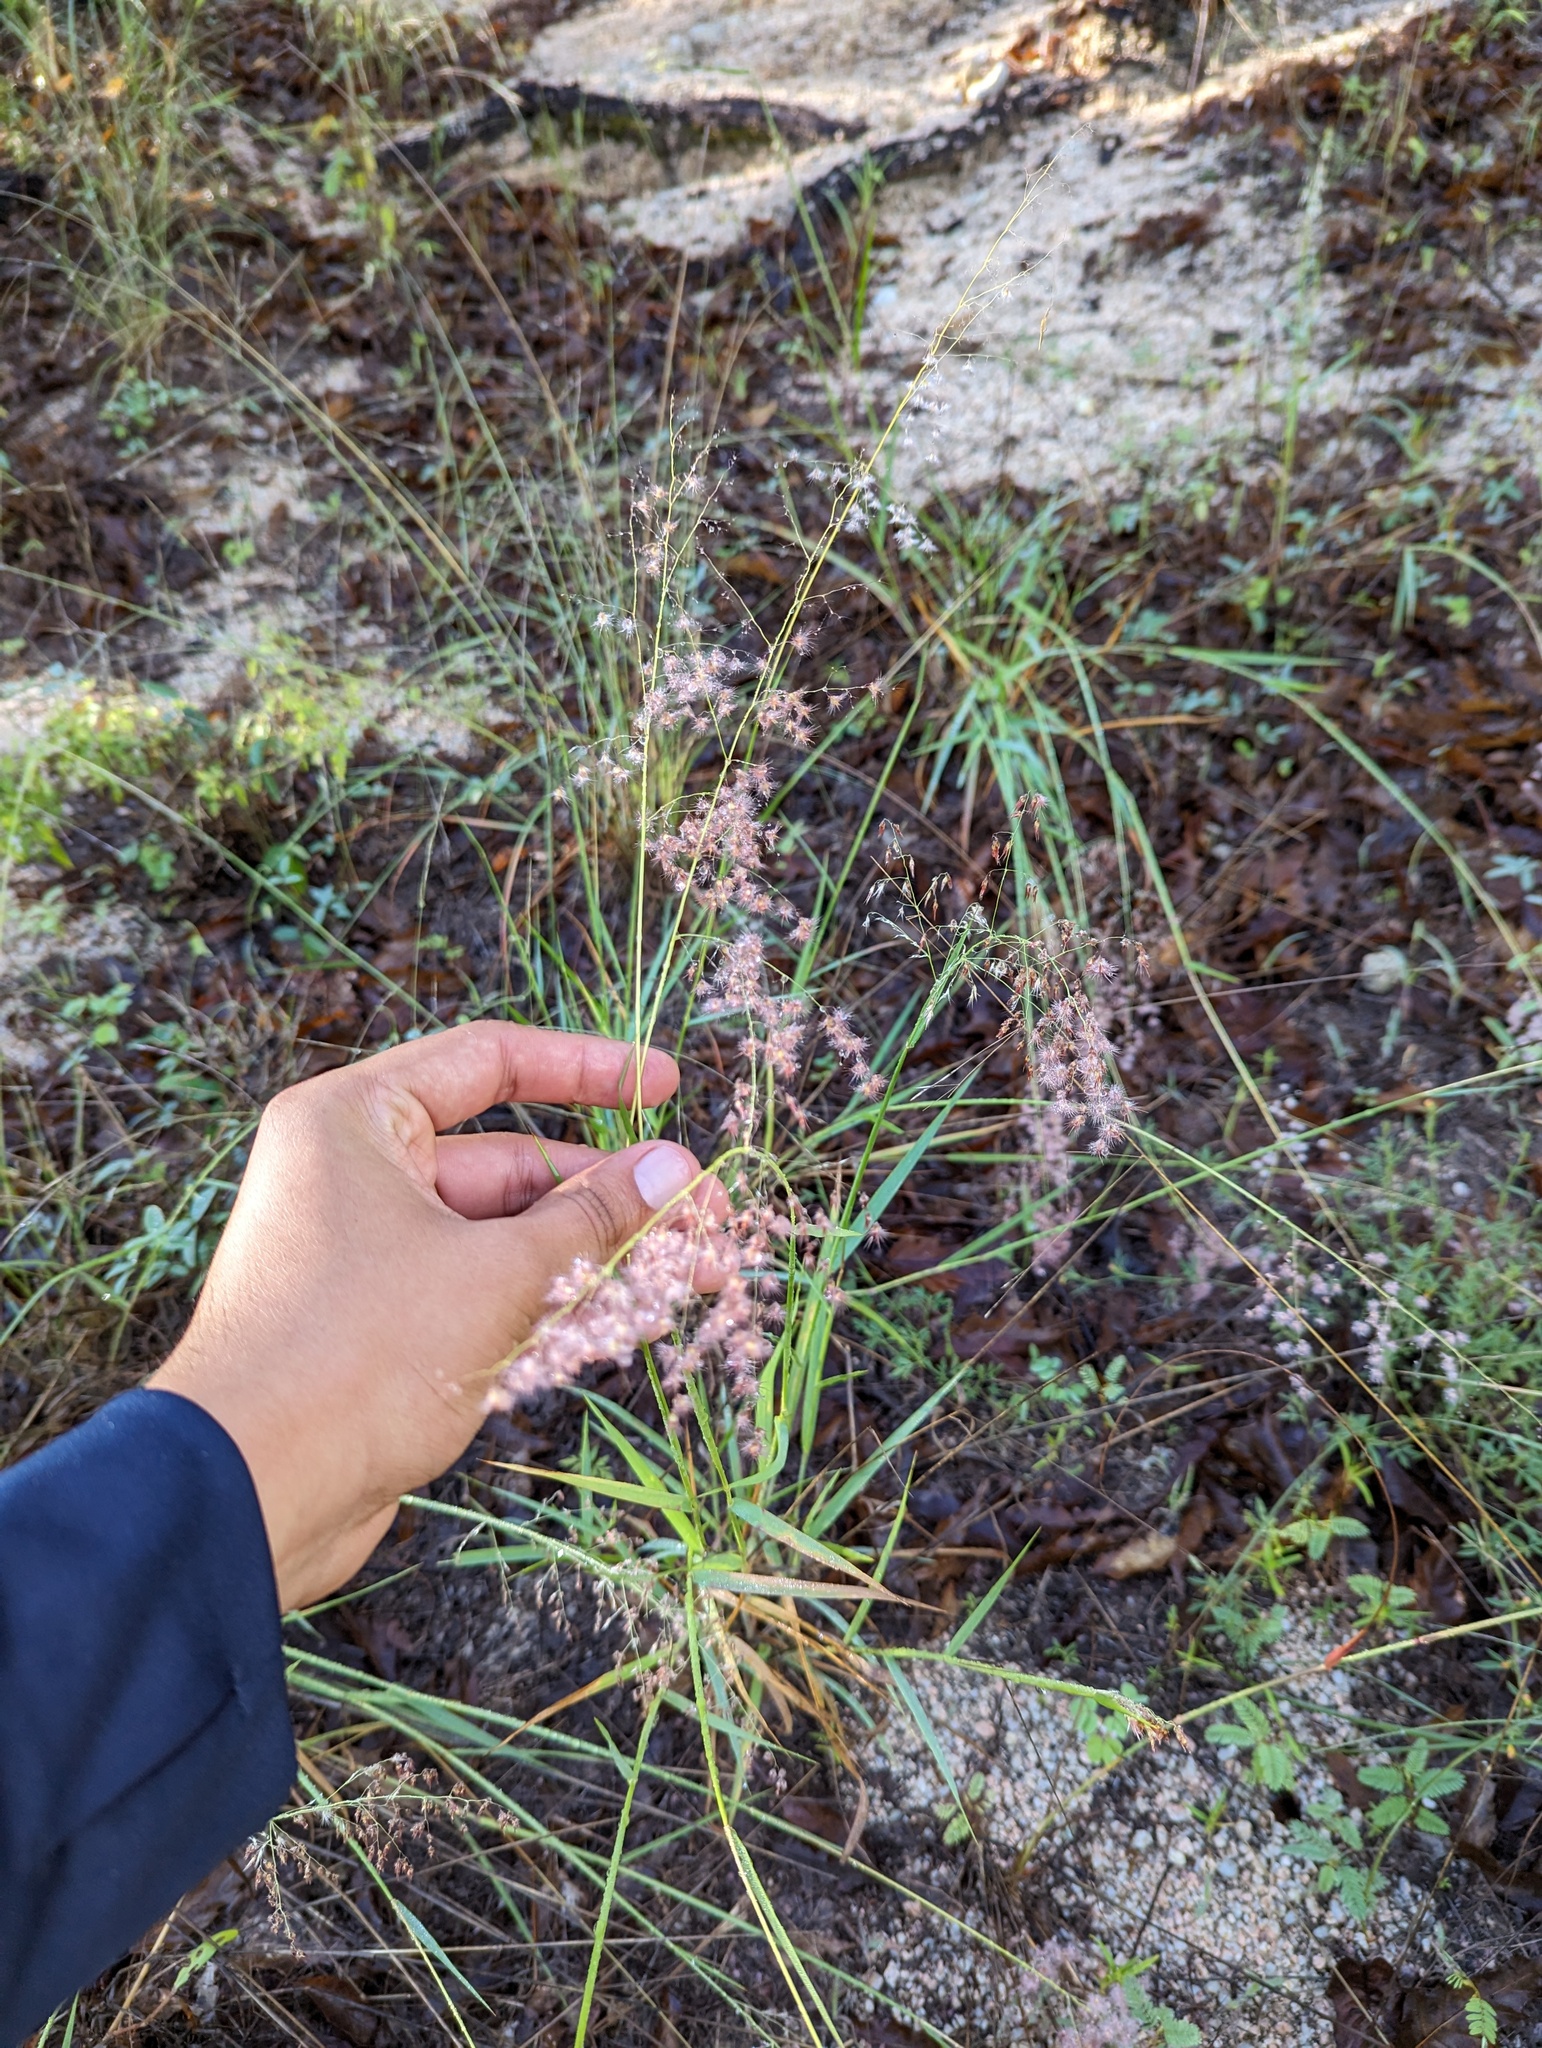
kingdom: Plantae
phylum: Tracheophyta
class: Liliopsida
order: Poales
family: Poaceae
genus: Melinis
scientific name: Melinis repens
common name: Rose natal grass
